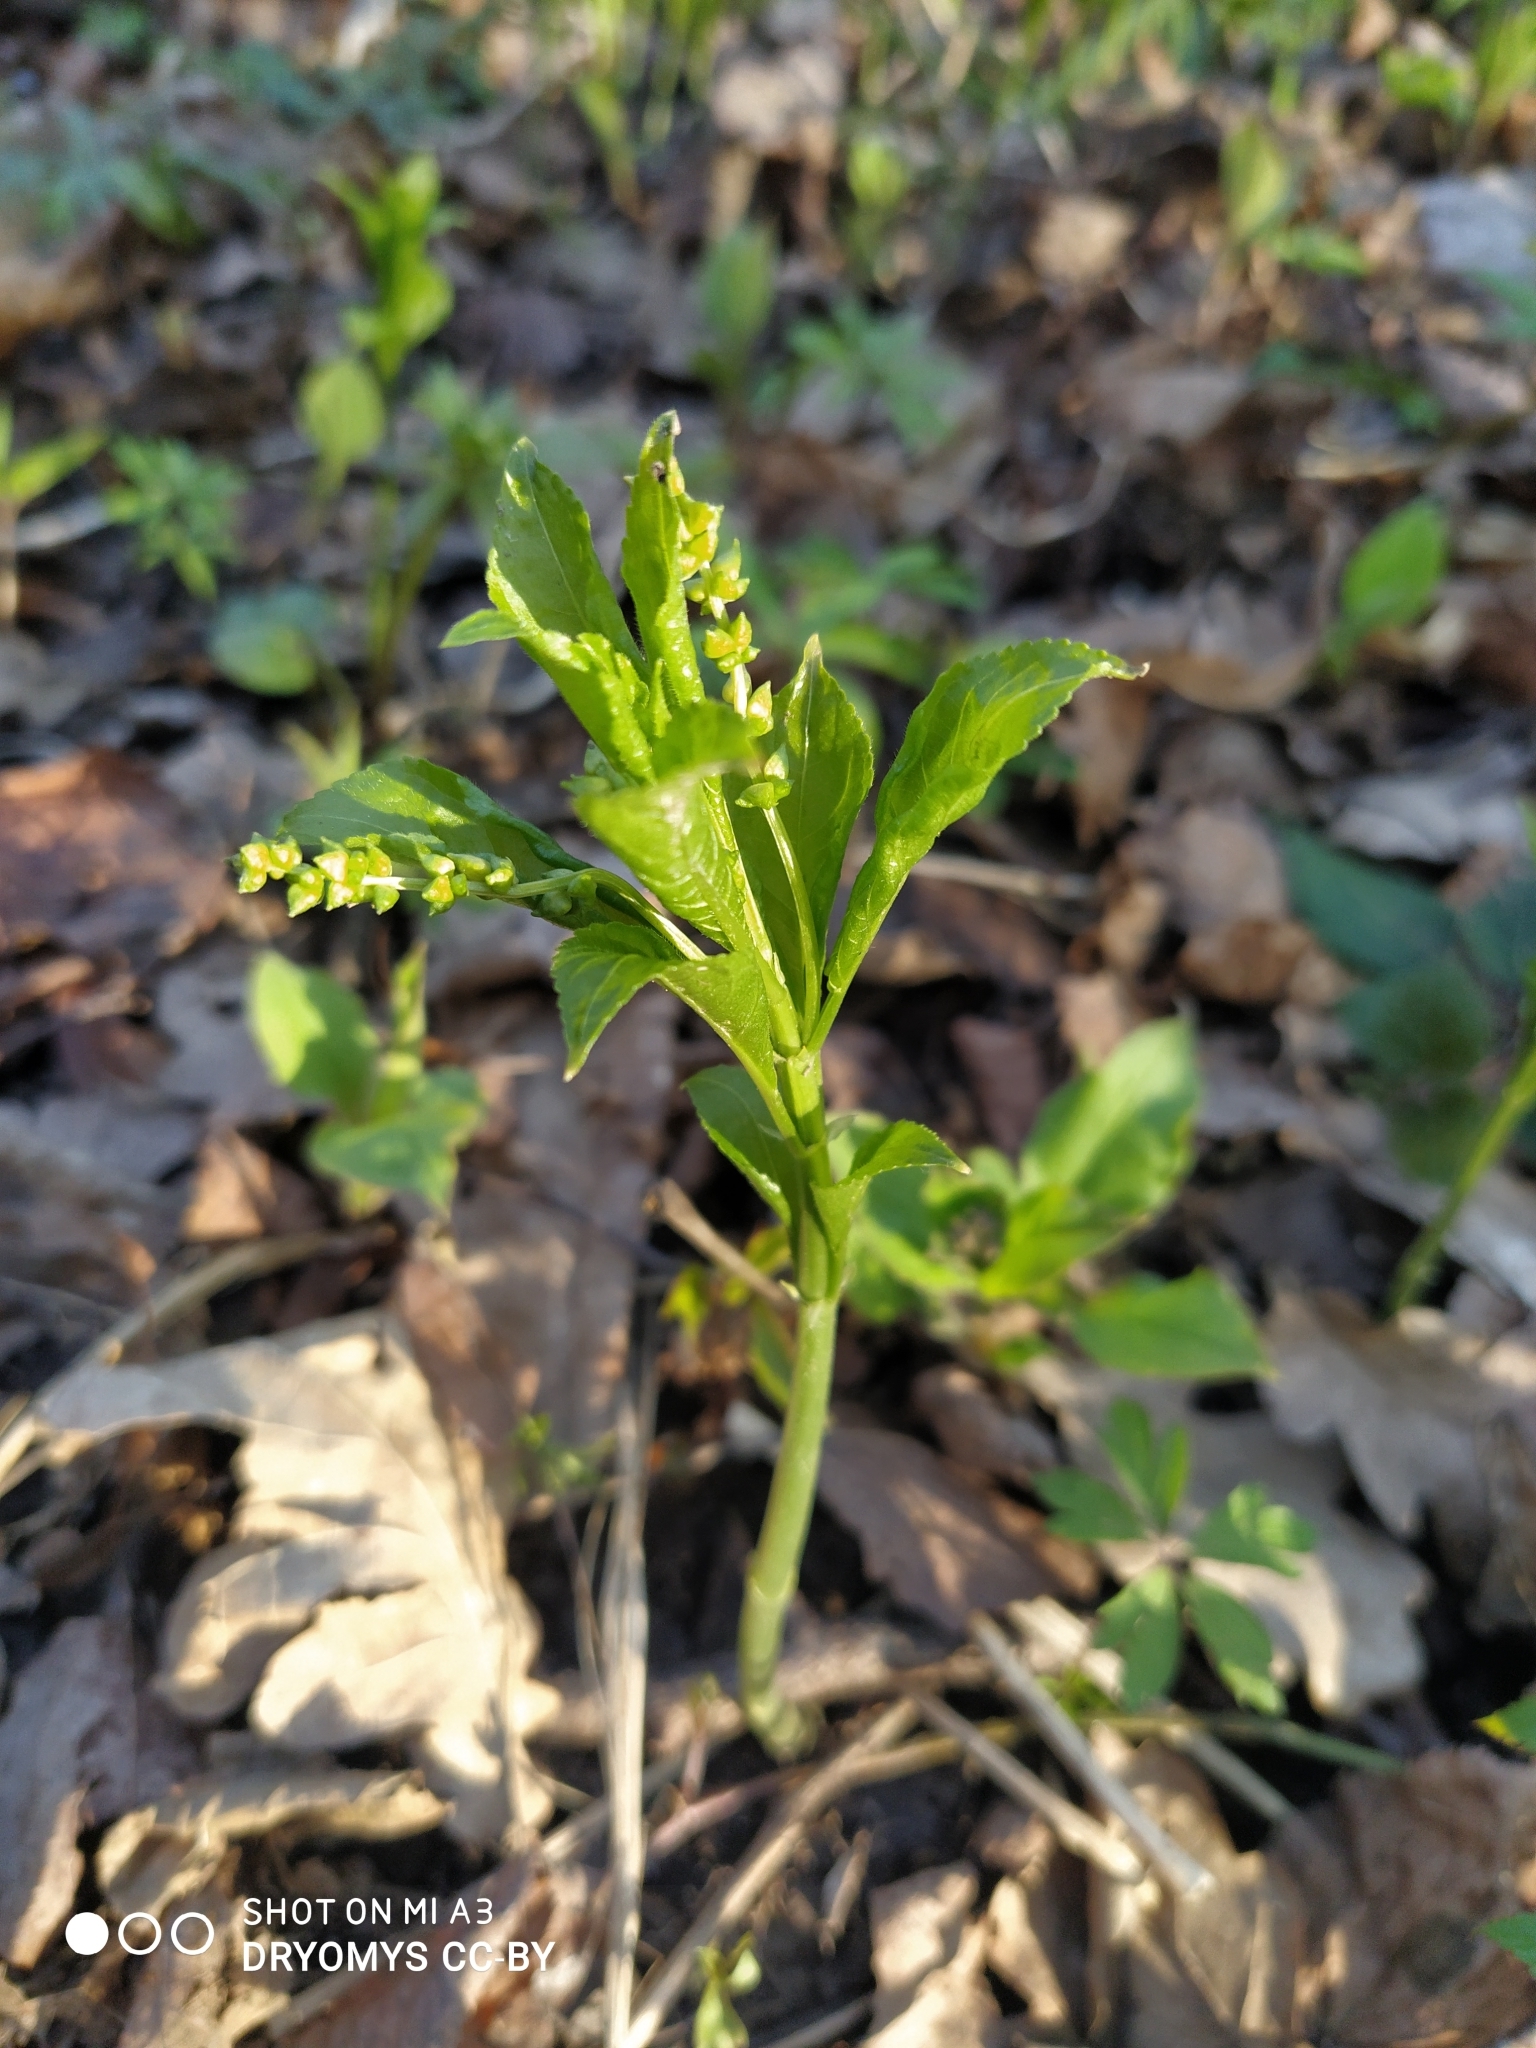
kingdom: Plantae
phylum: Tracheophyta
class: Magnoliopsida
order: Malpighiales
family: Euphorbiaceae
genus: Mercurialis
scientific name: Mercurialis perennis
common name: Dog mercury
